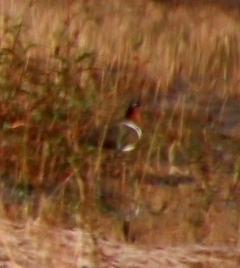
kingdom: Animalia
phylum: Chordata
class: Aves
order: Charadriiformes
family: Rostratulidae
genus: Rostratula
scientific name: Rostratula benghalensis
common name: Greater painted-snipe
